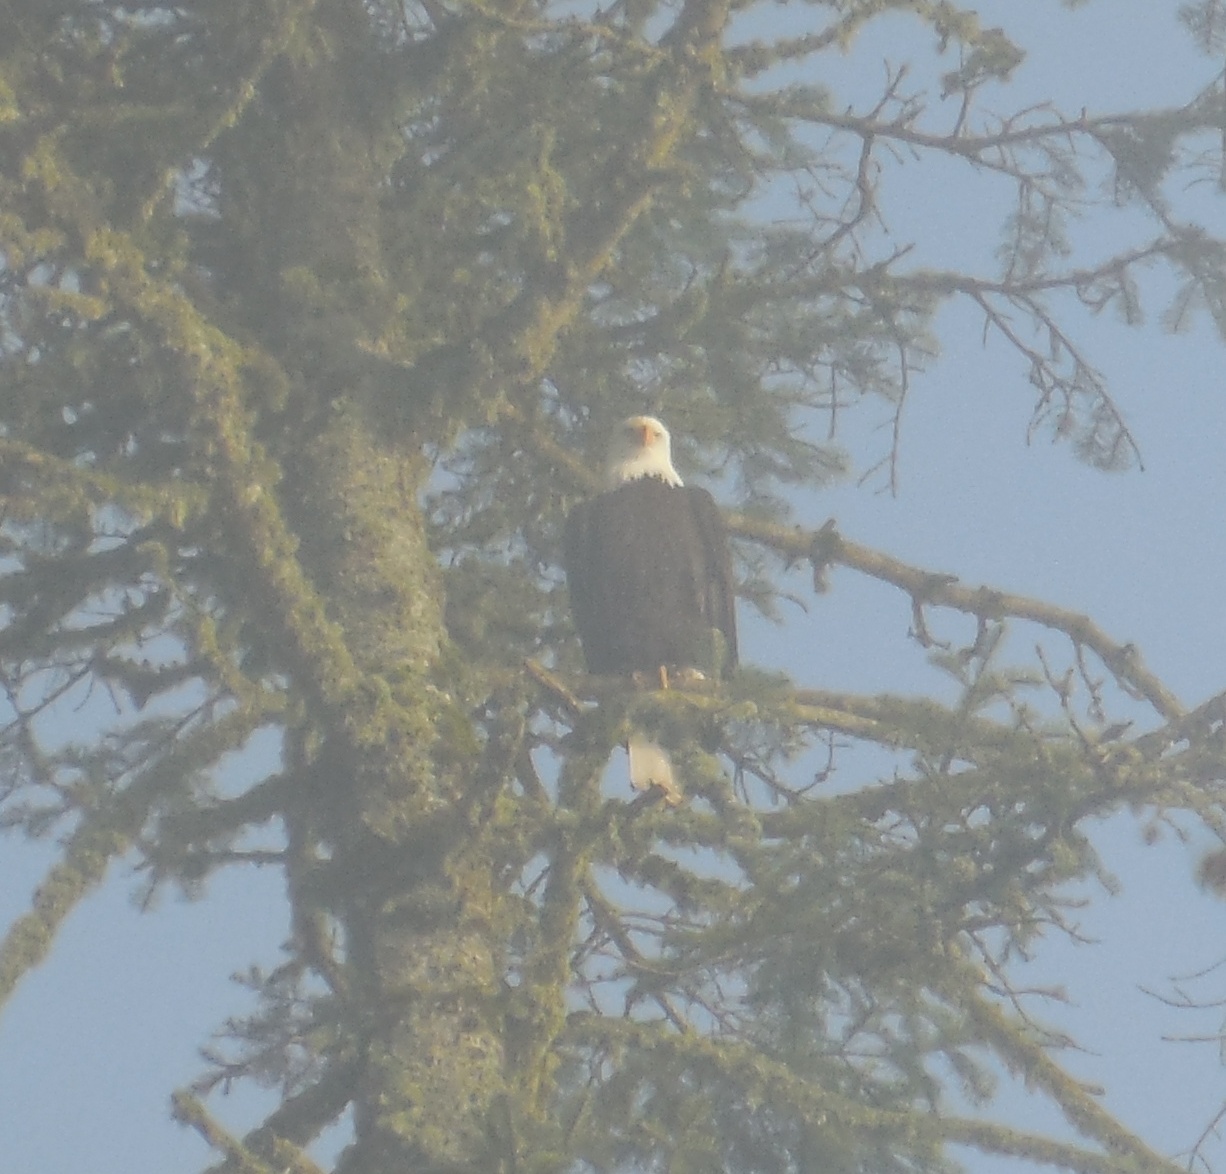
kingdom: Animalia
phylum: Chordata
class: Aves
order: Accipitriformes
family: Accipitridae
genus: Haliaeetus
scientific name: Haliaeetus leucocephalus
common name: Bald eagle
